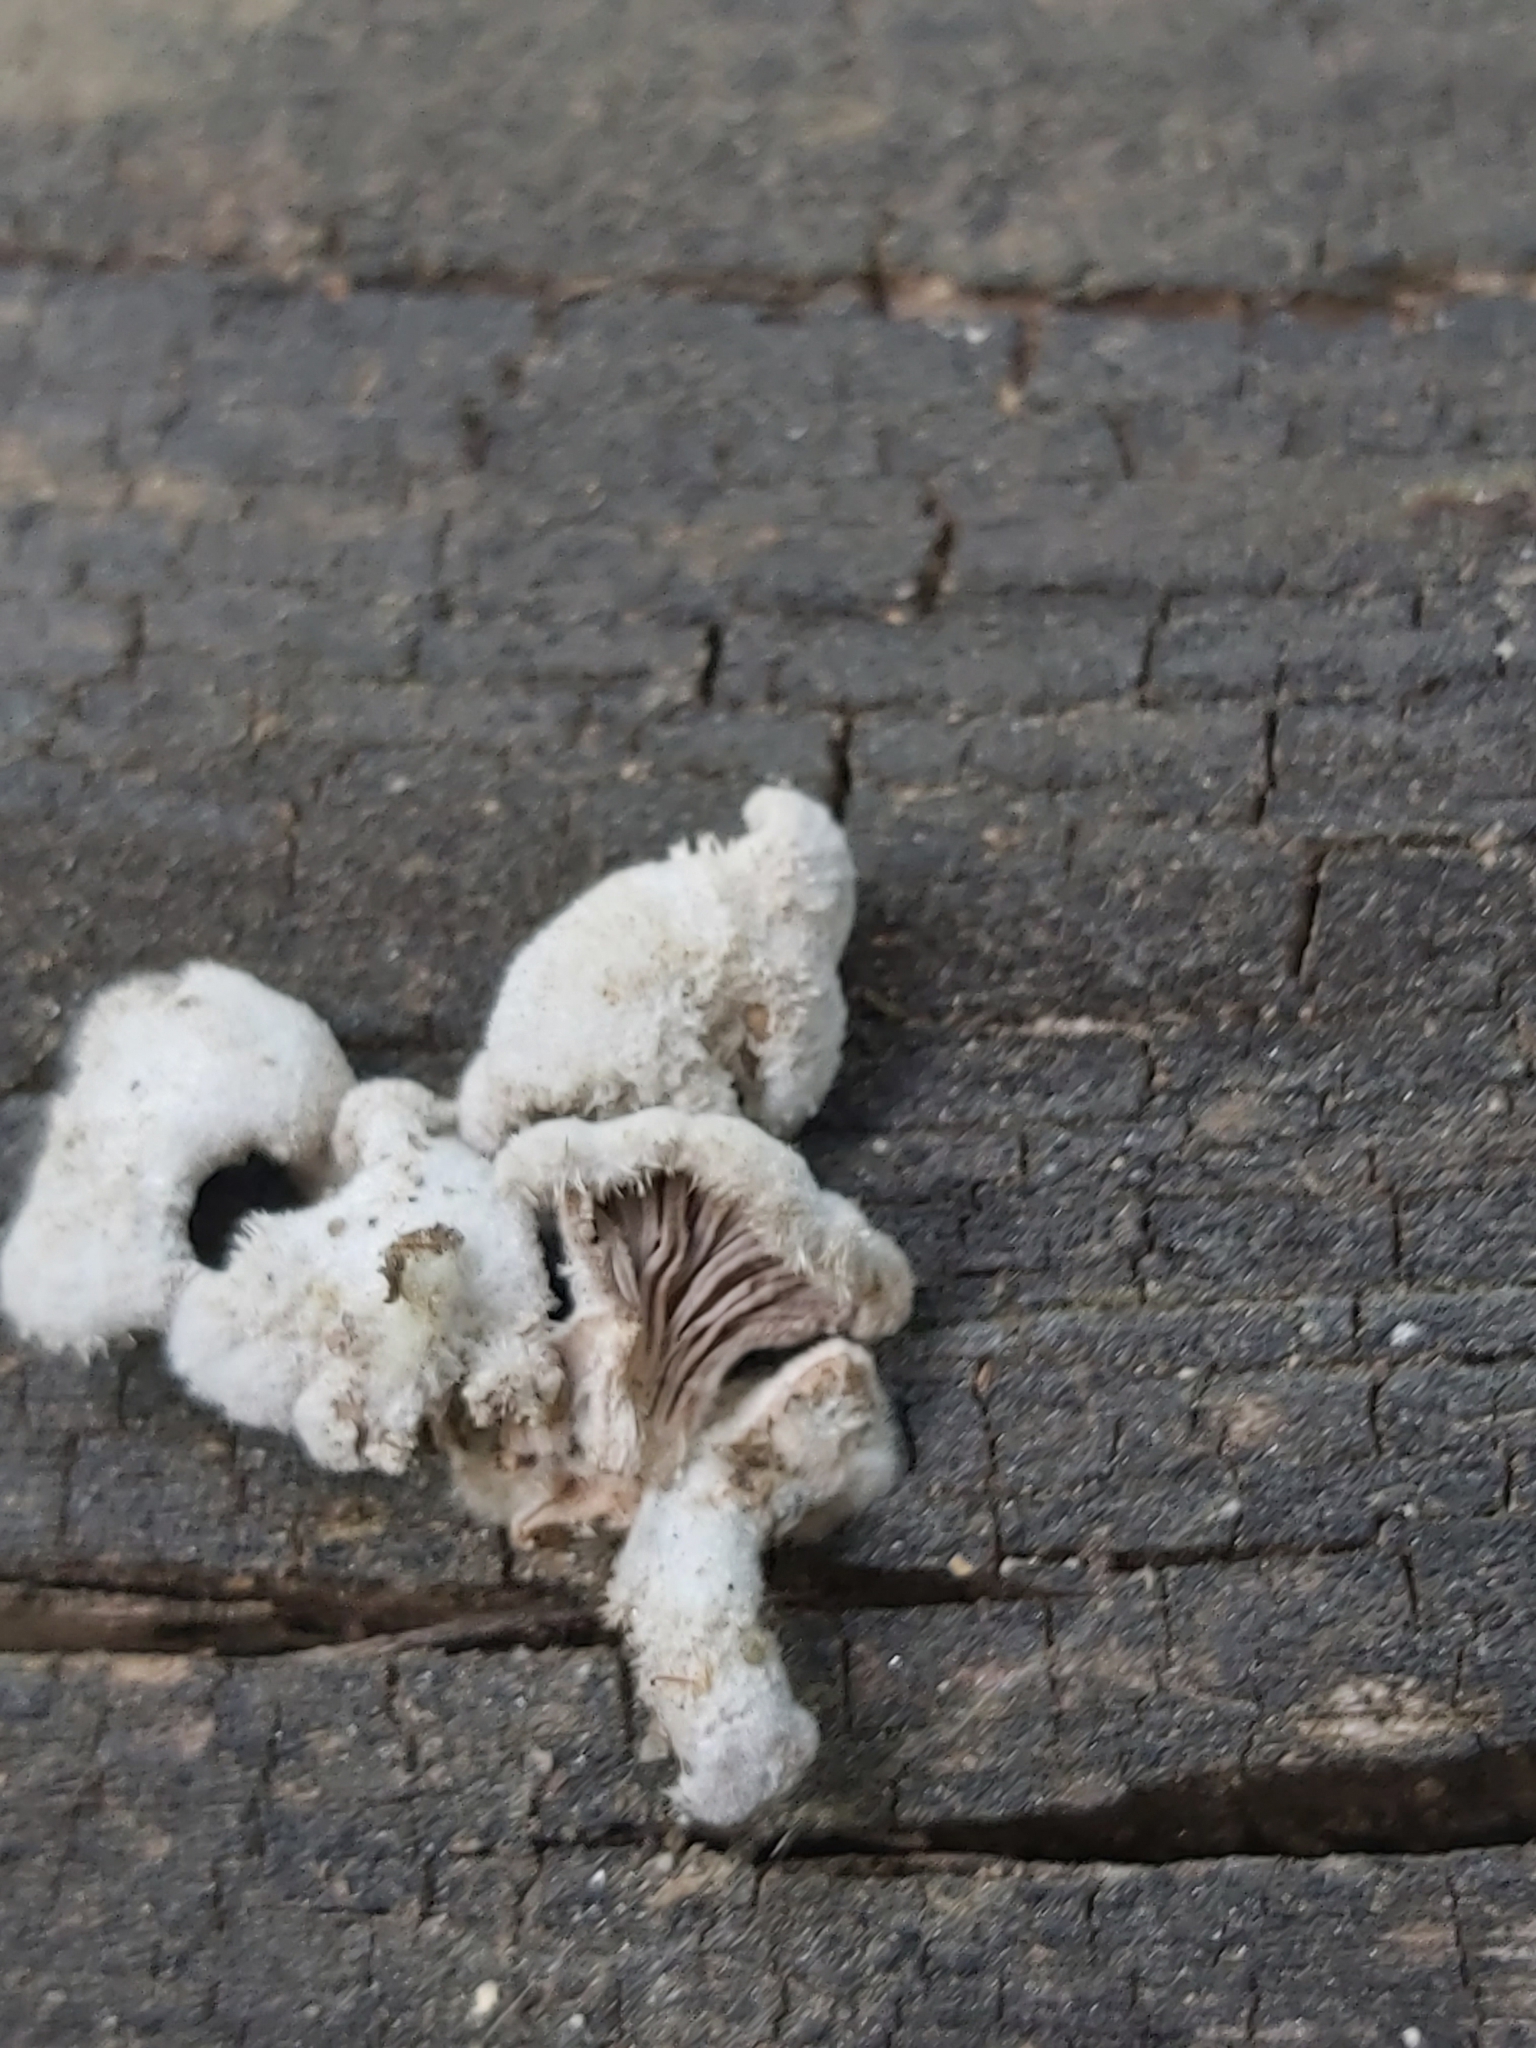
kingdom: Fungi
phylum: Basidiomycota
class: Agaricomycetes
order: Agaricales
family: Schizophyllaceae
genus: Schizophyllum
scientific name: Schizophyllum commune
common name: Common porecrust
